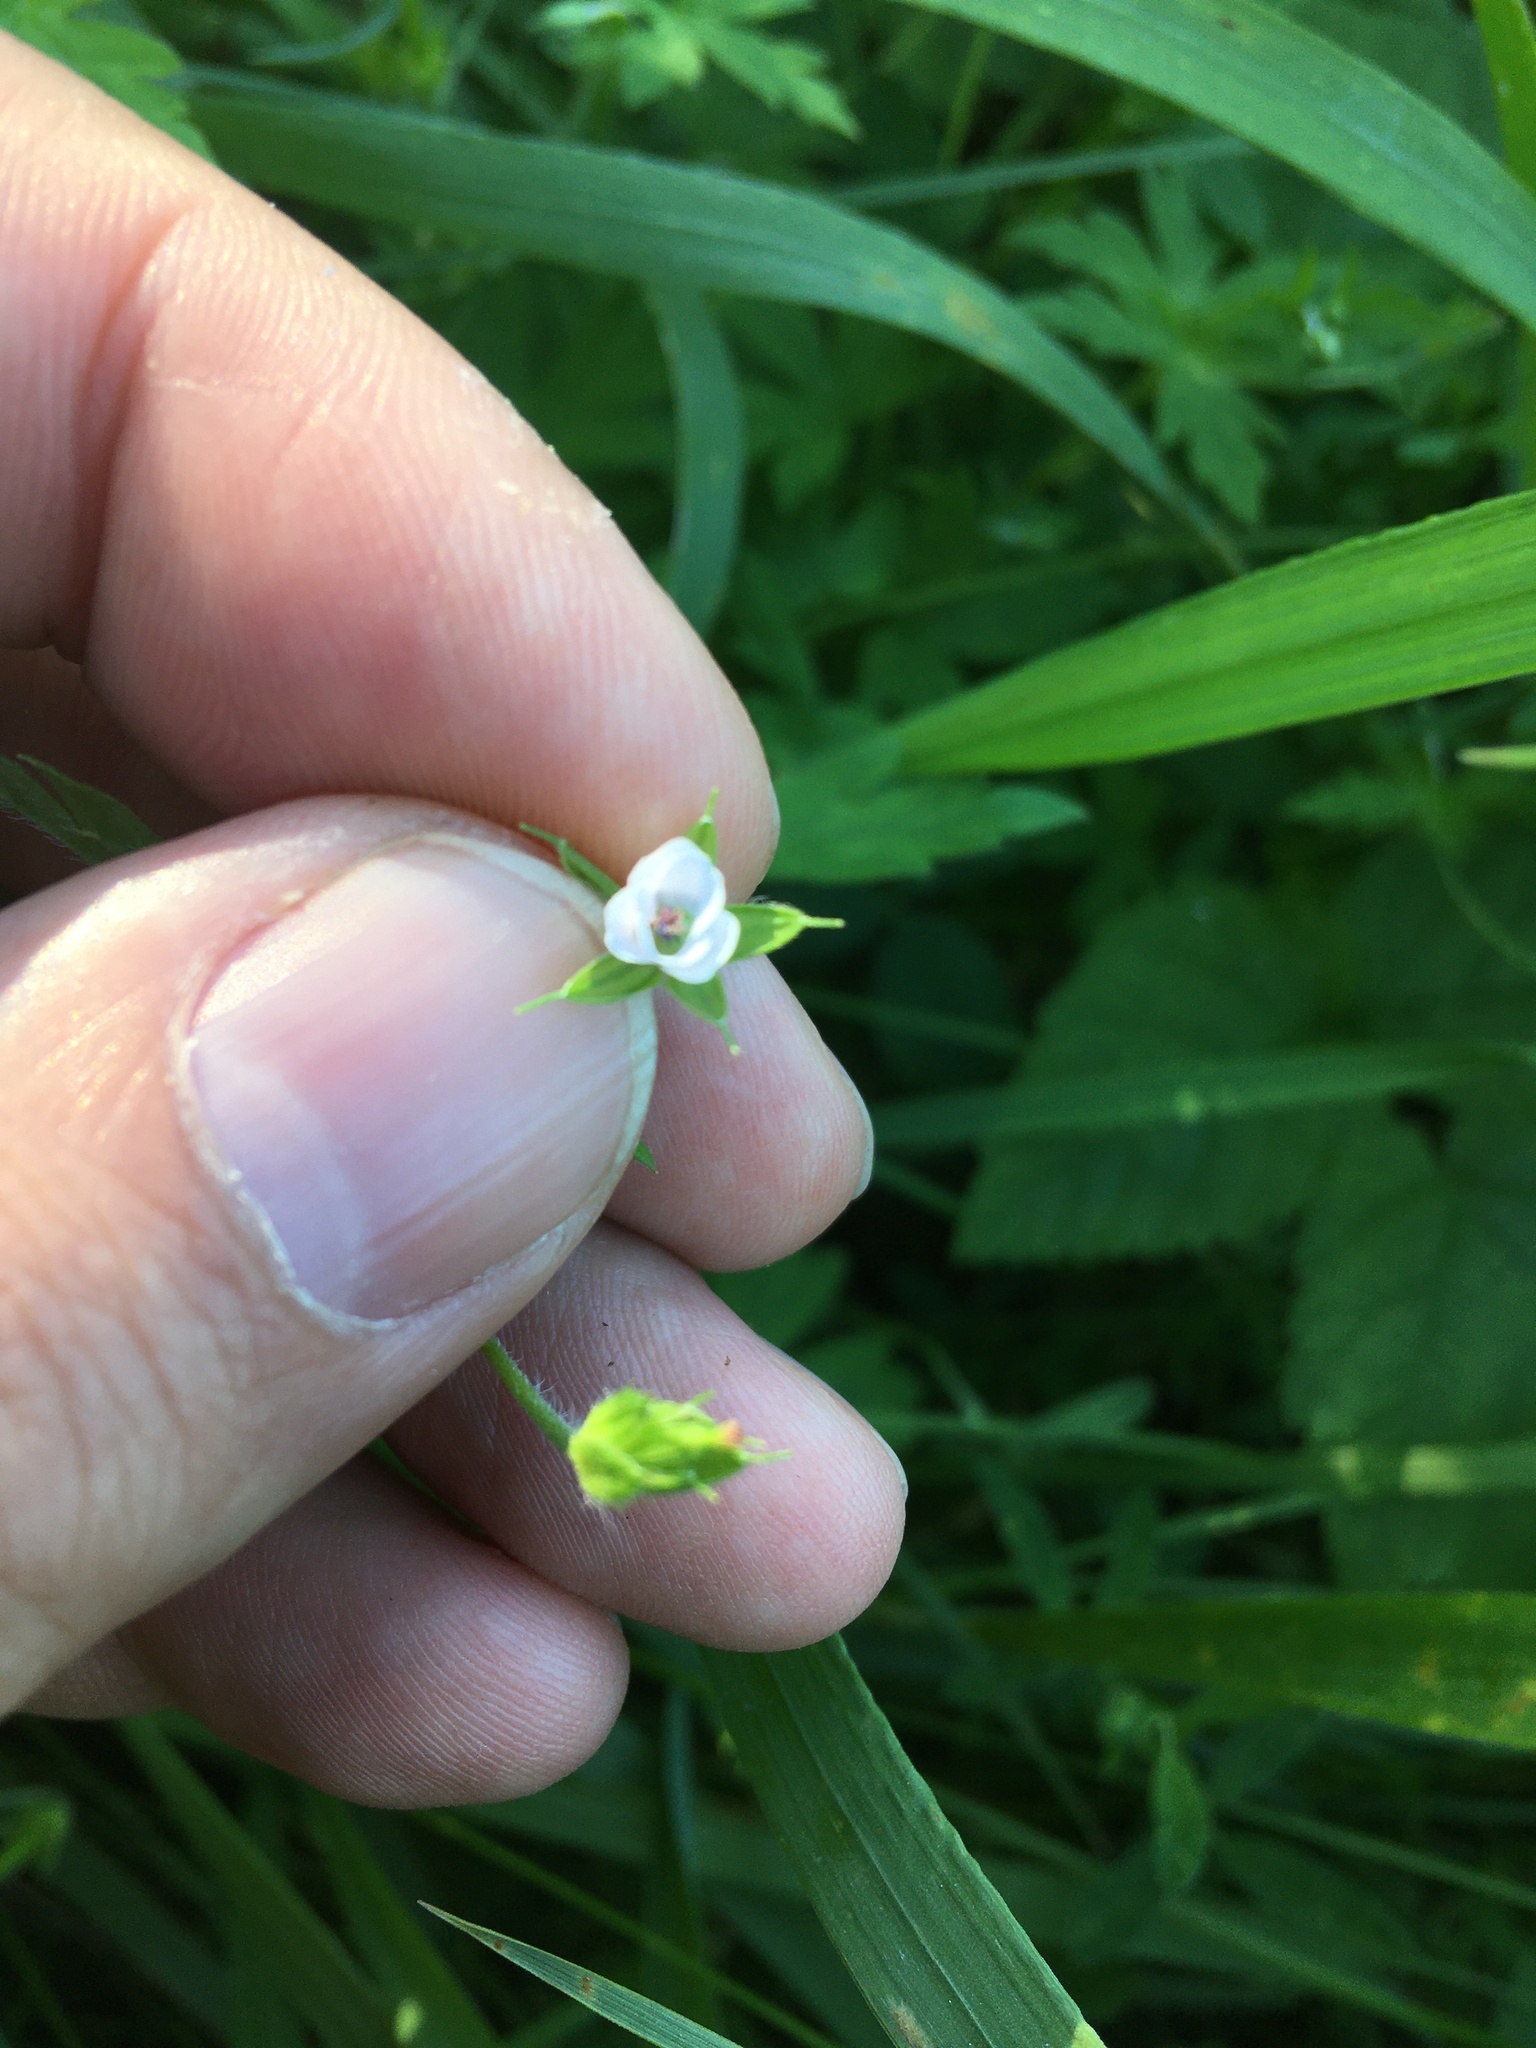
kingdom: Plantae
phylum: Tracheophyta
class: Magnoliopsida
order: Geraniales
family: Geraniaceae
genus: Geranium
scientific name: Geranium sibiricum
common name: Siberian crane's-bill
